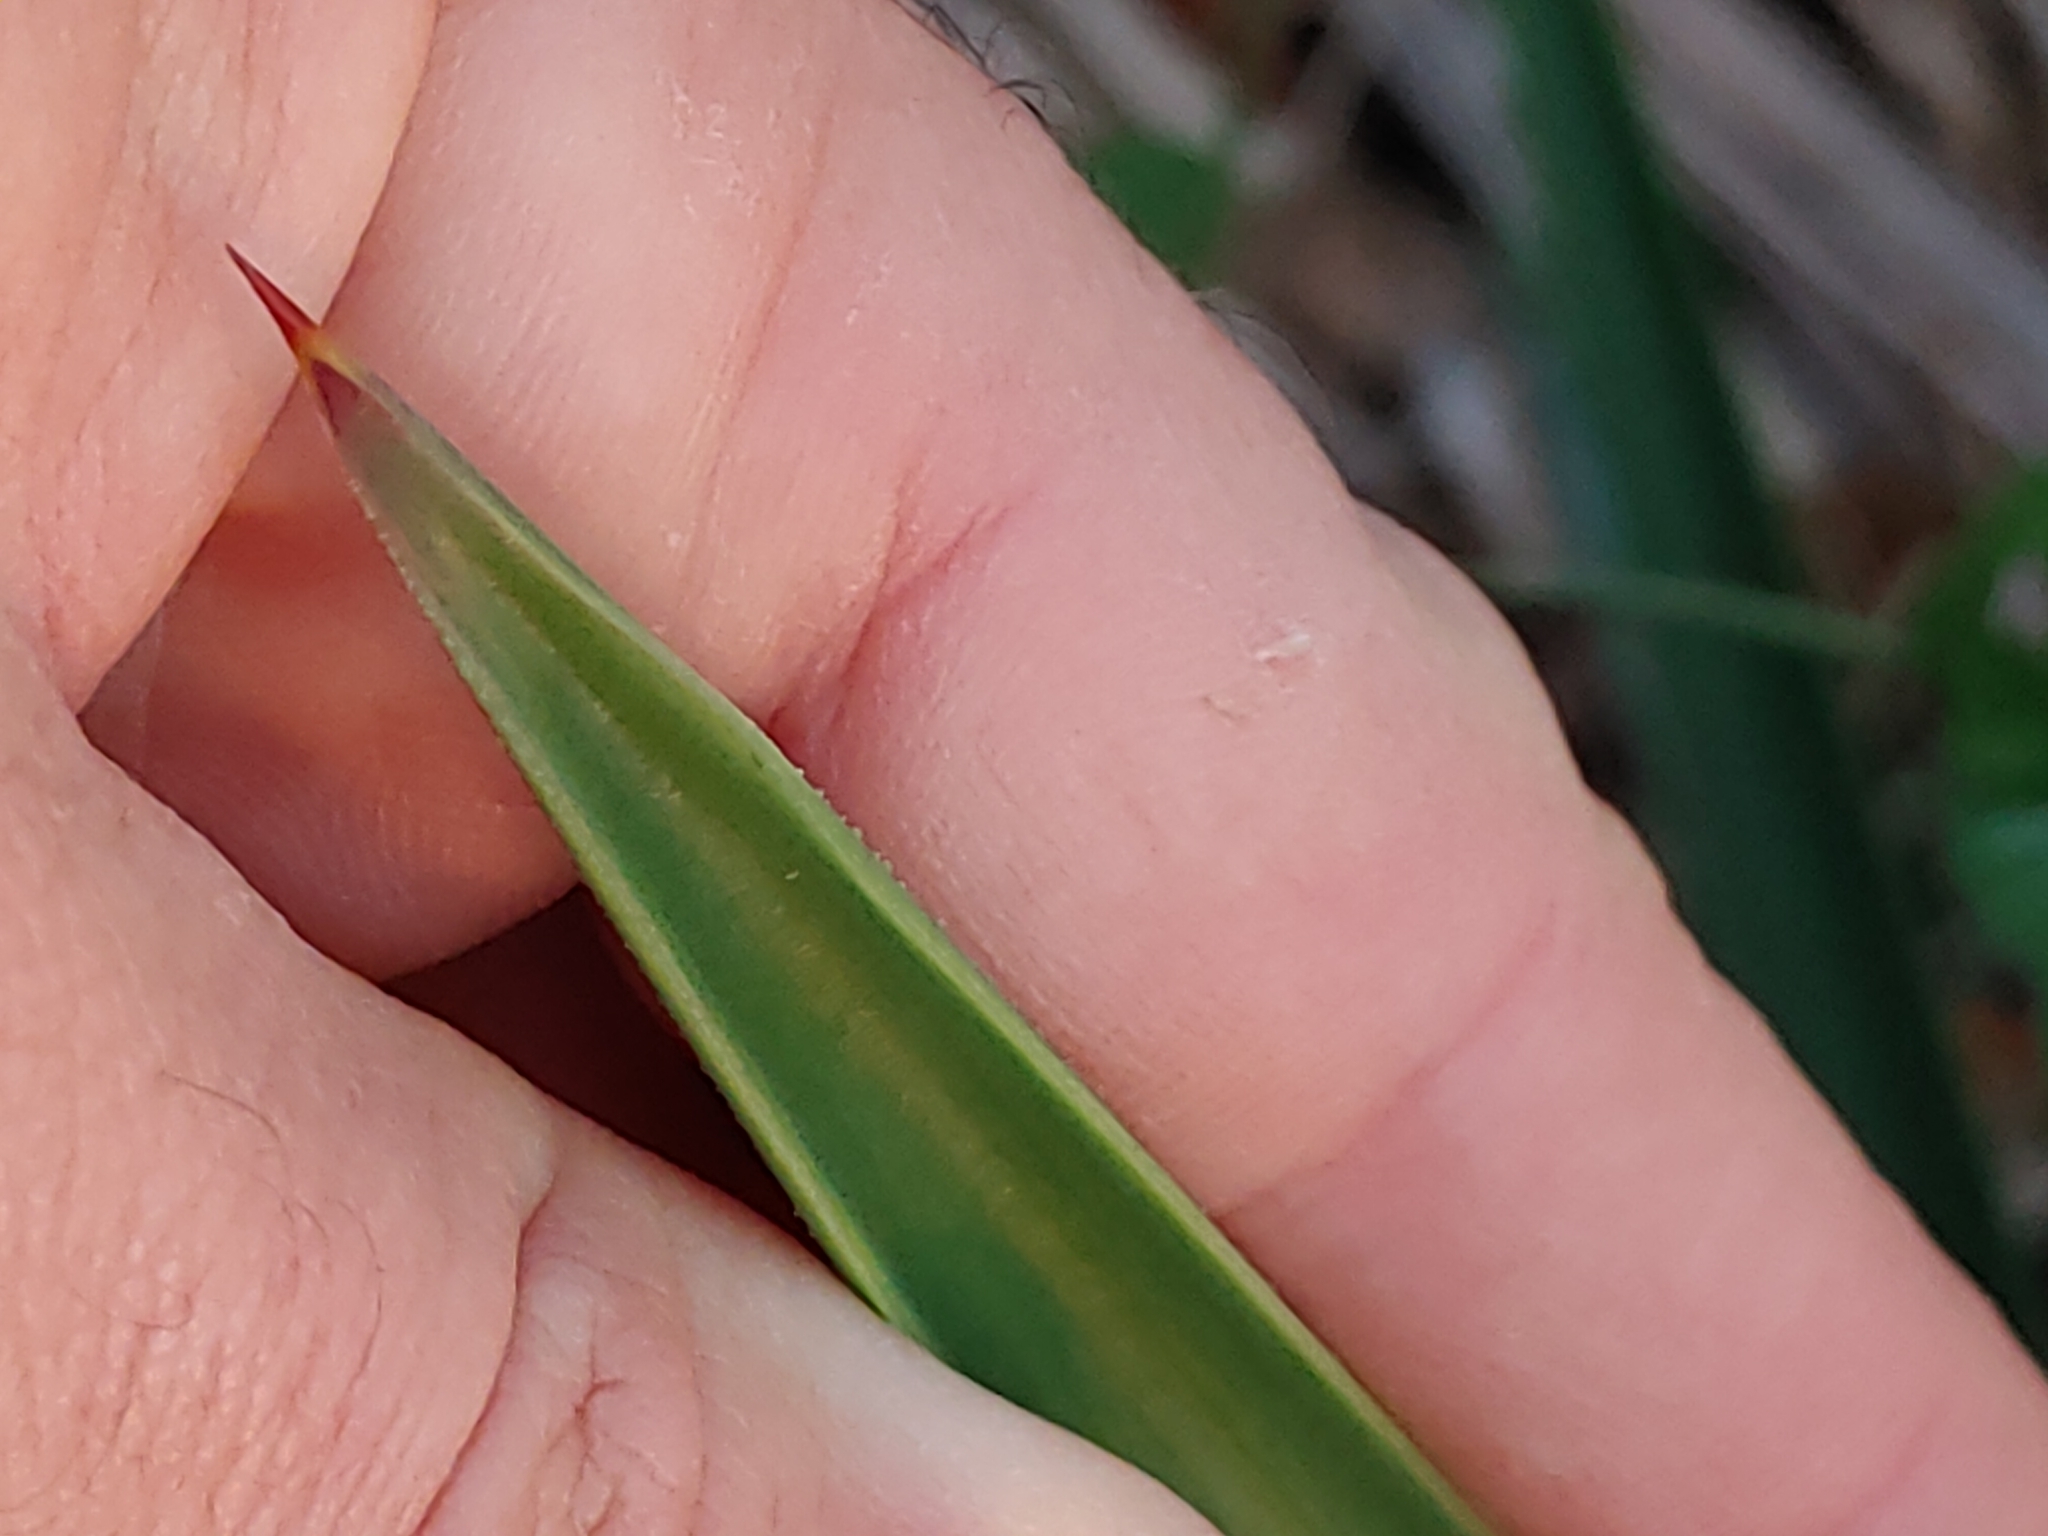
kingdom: Plantae
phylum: Tracheophyta
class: Liliopsida
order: Asparagales
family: Asparagaceae
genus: Yucca
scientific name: Yucca aloifolia
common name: Aloe yucca
